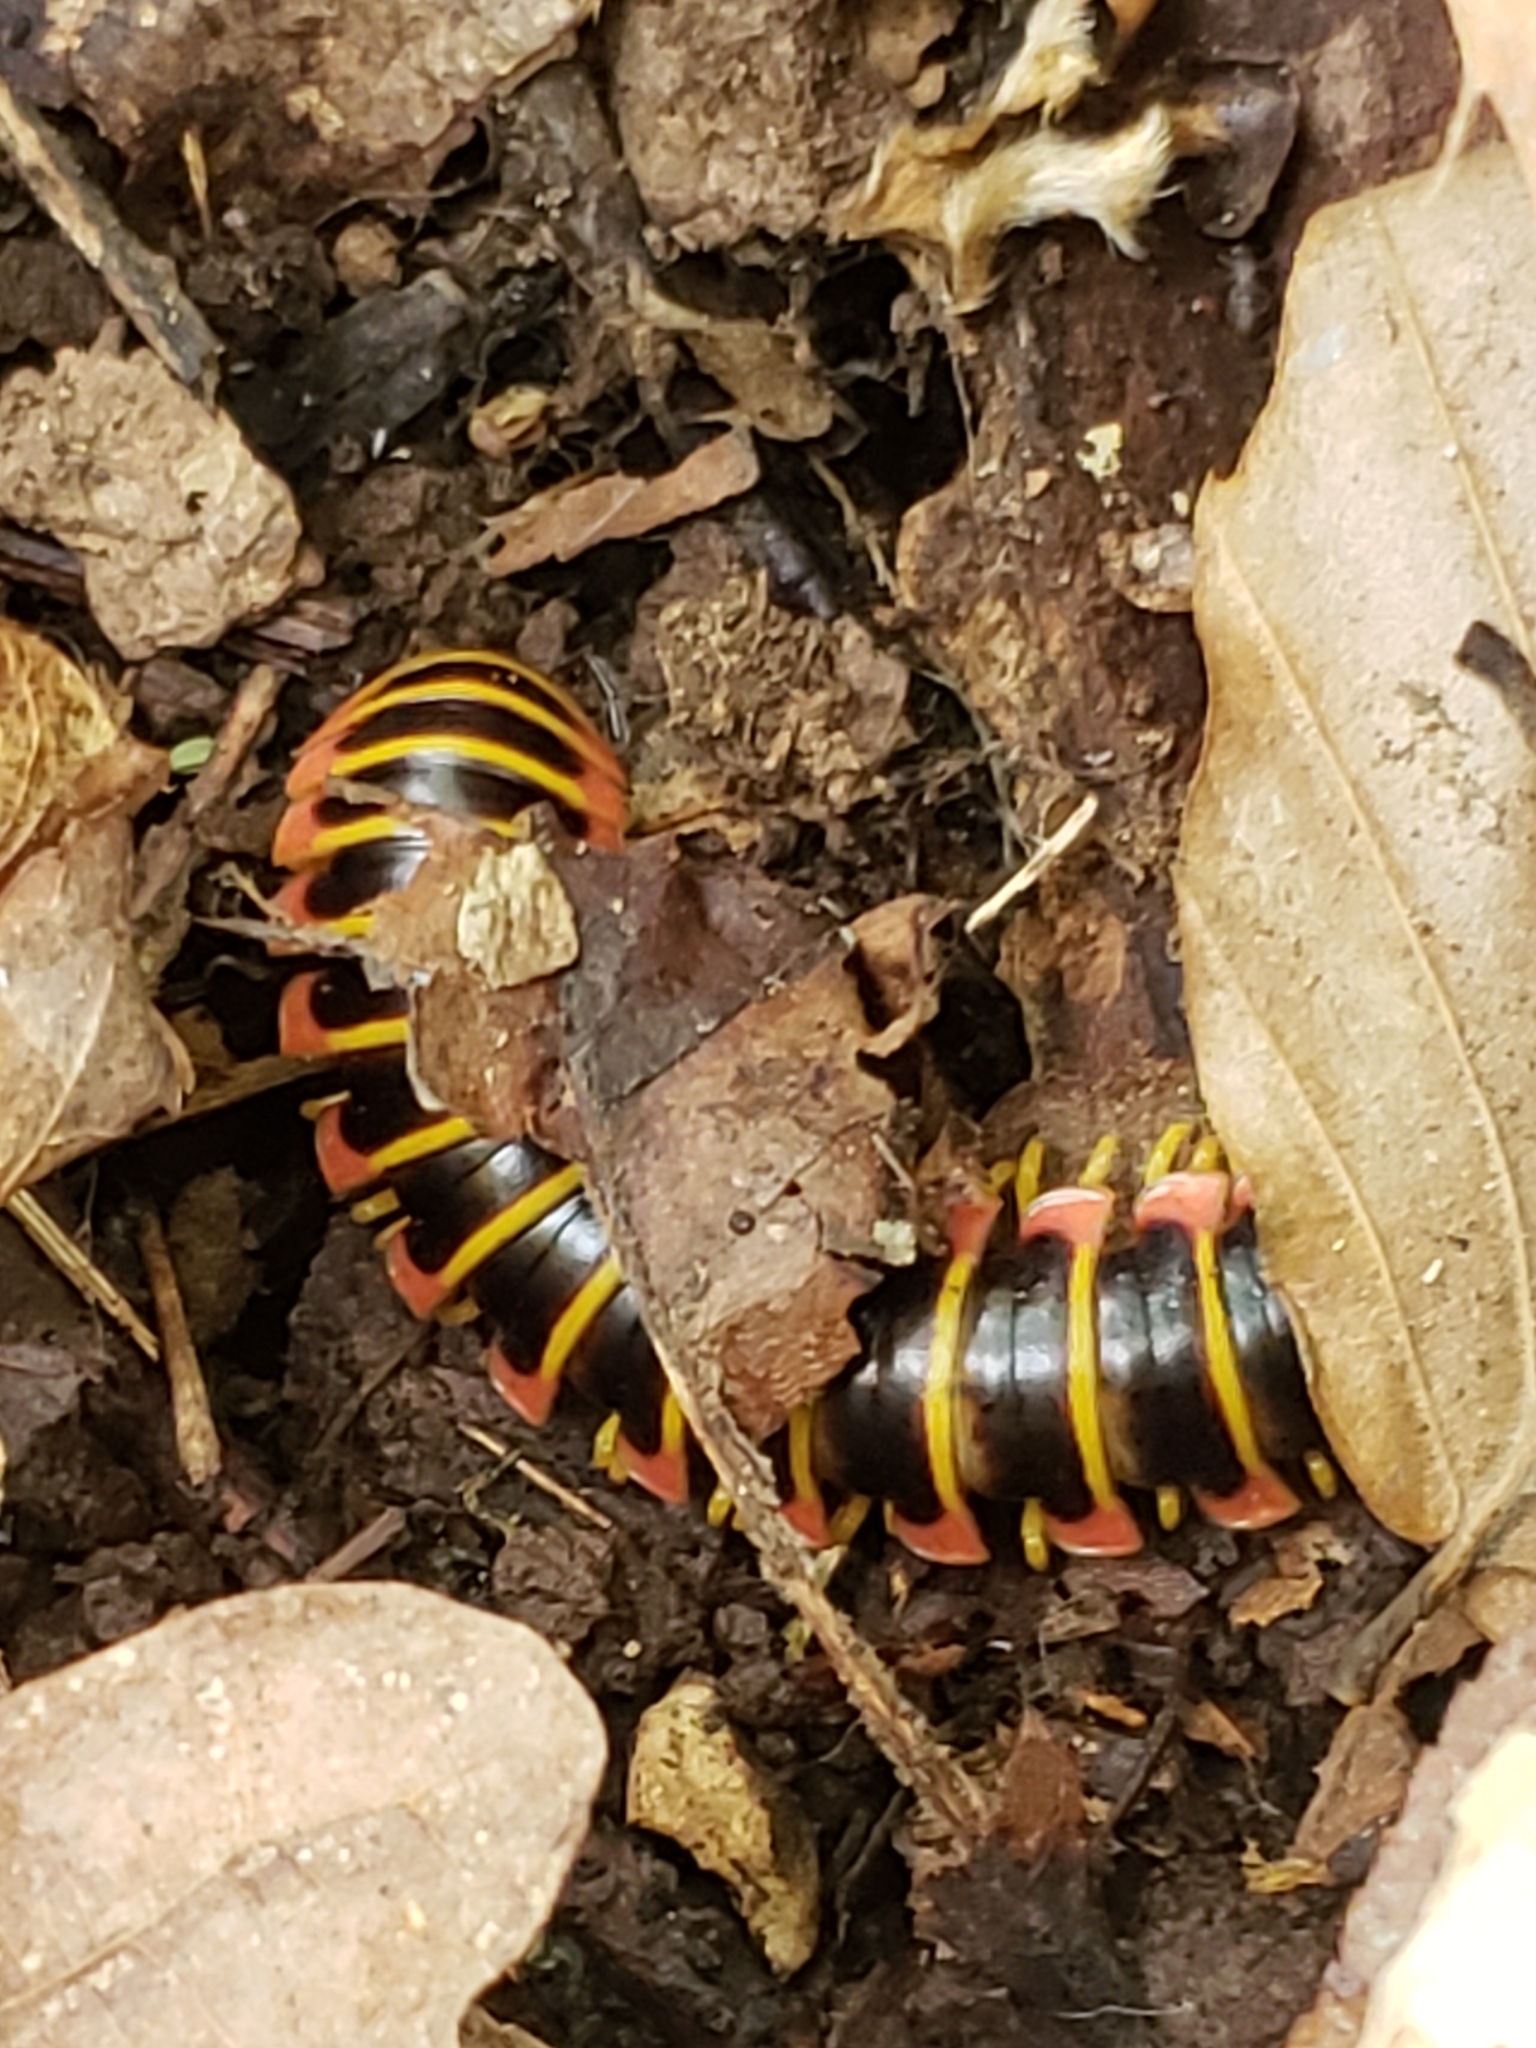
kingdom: Animalia
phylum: Arthropoda
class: Diplopoda
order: Polydesmida
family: Xystodesmidae
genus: Apheloria
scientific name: Apheloria virginiensis
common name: Black-and-gold flat millipede
